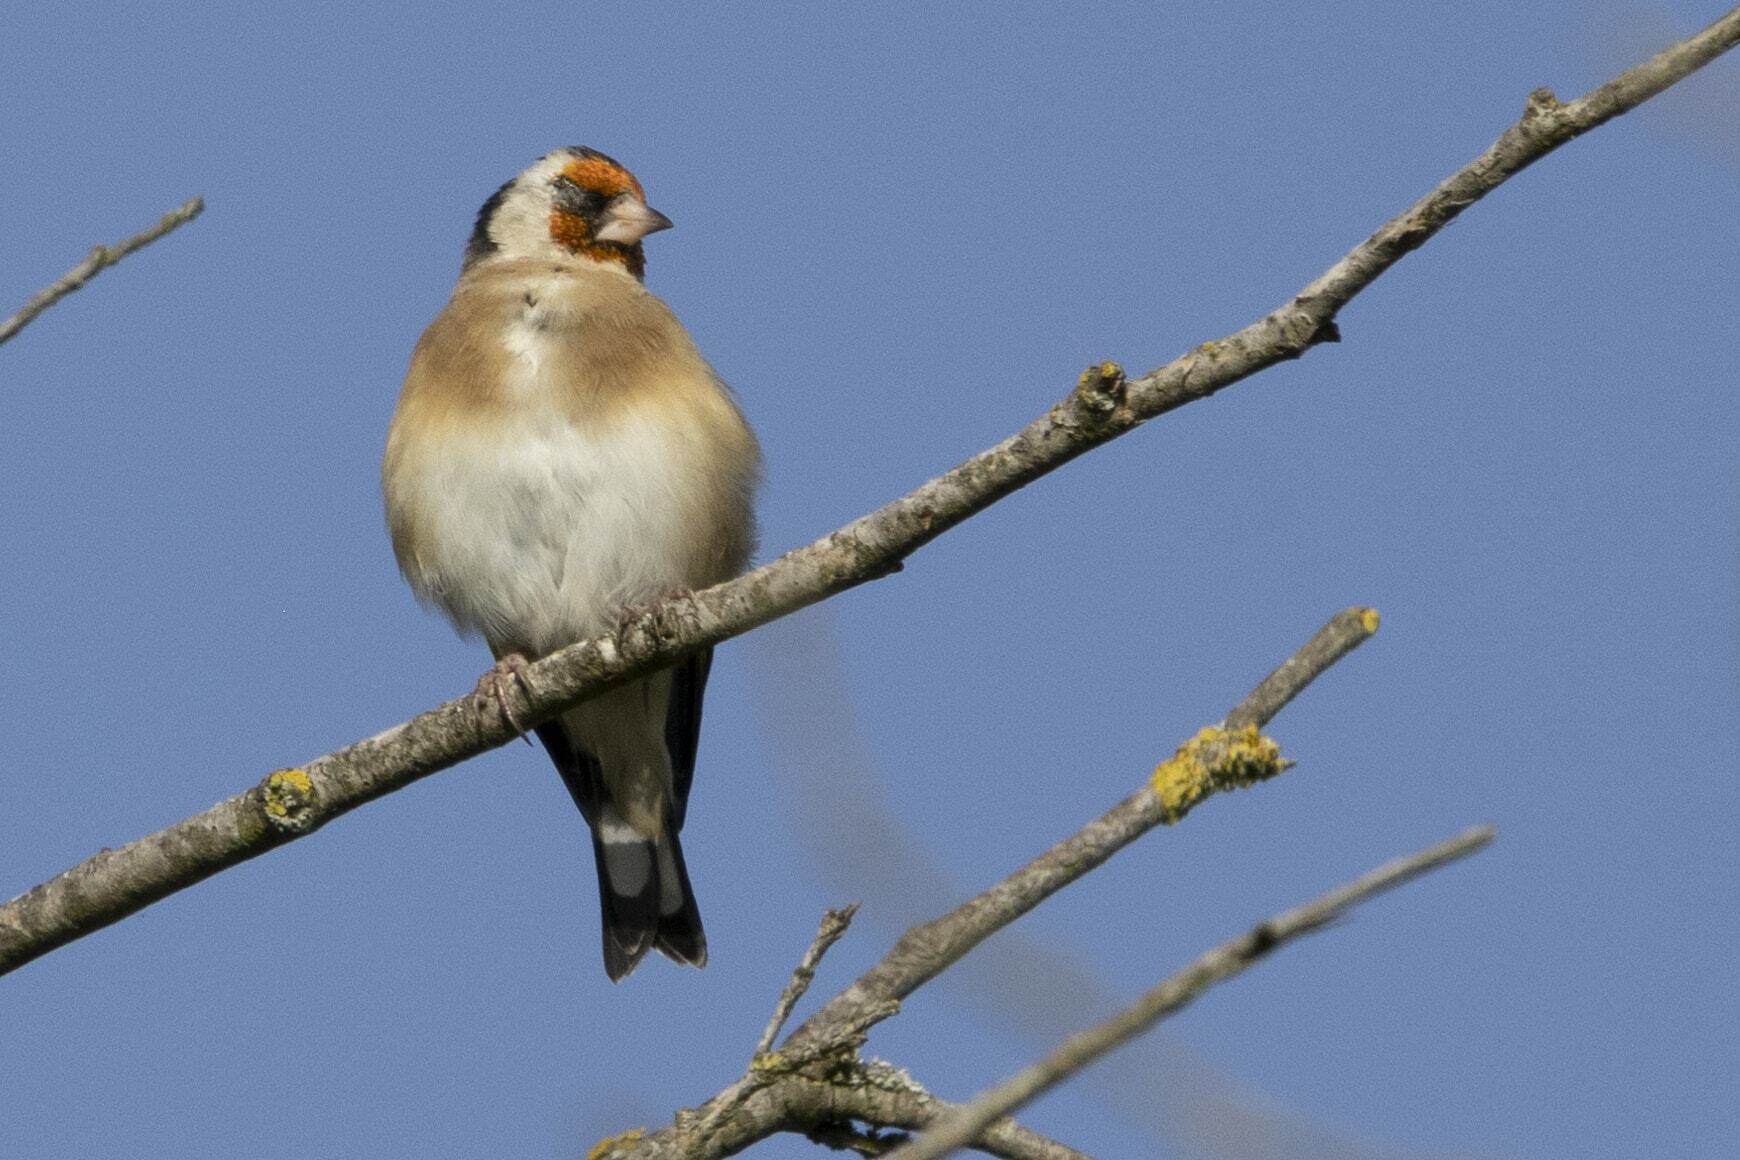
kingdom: Animalia
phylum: Chordata
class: Aves
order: Passeriformes
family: Fringillidae
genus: Carduelis
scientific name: Carduelis carduelis
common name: European goldfinch
